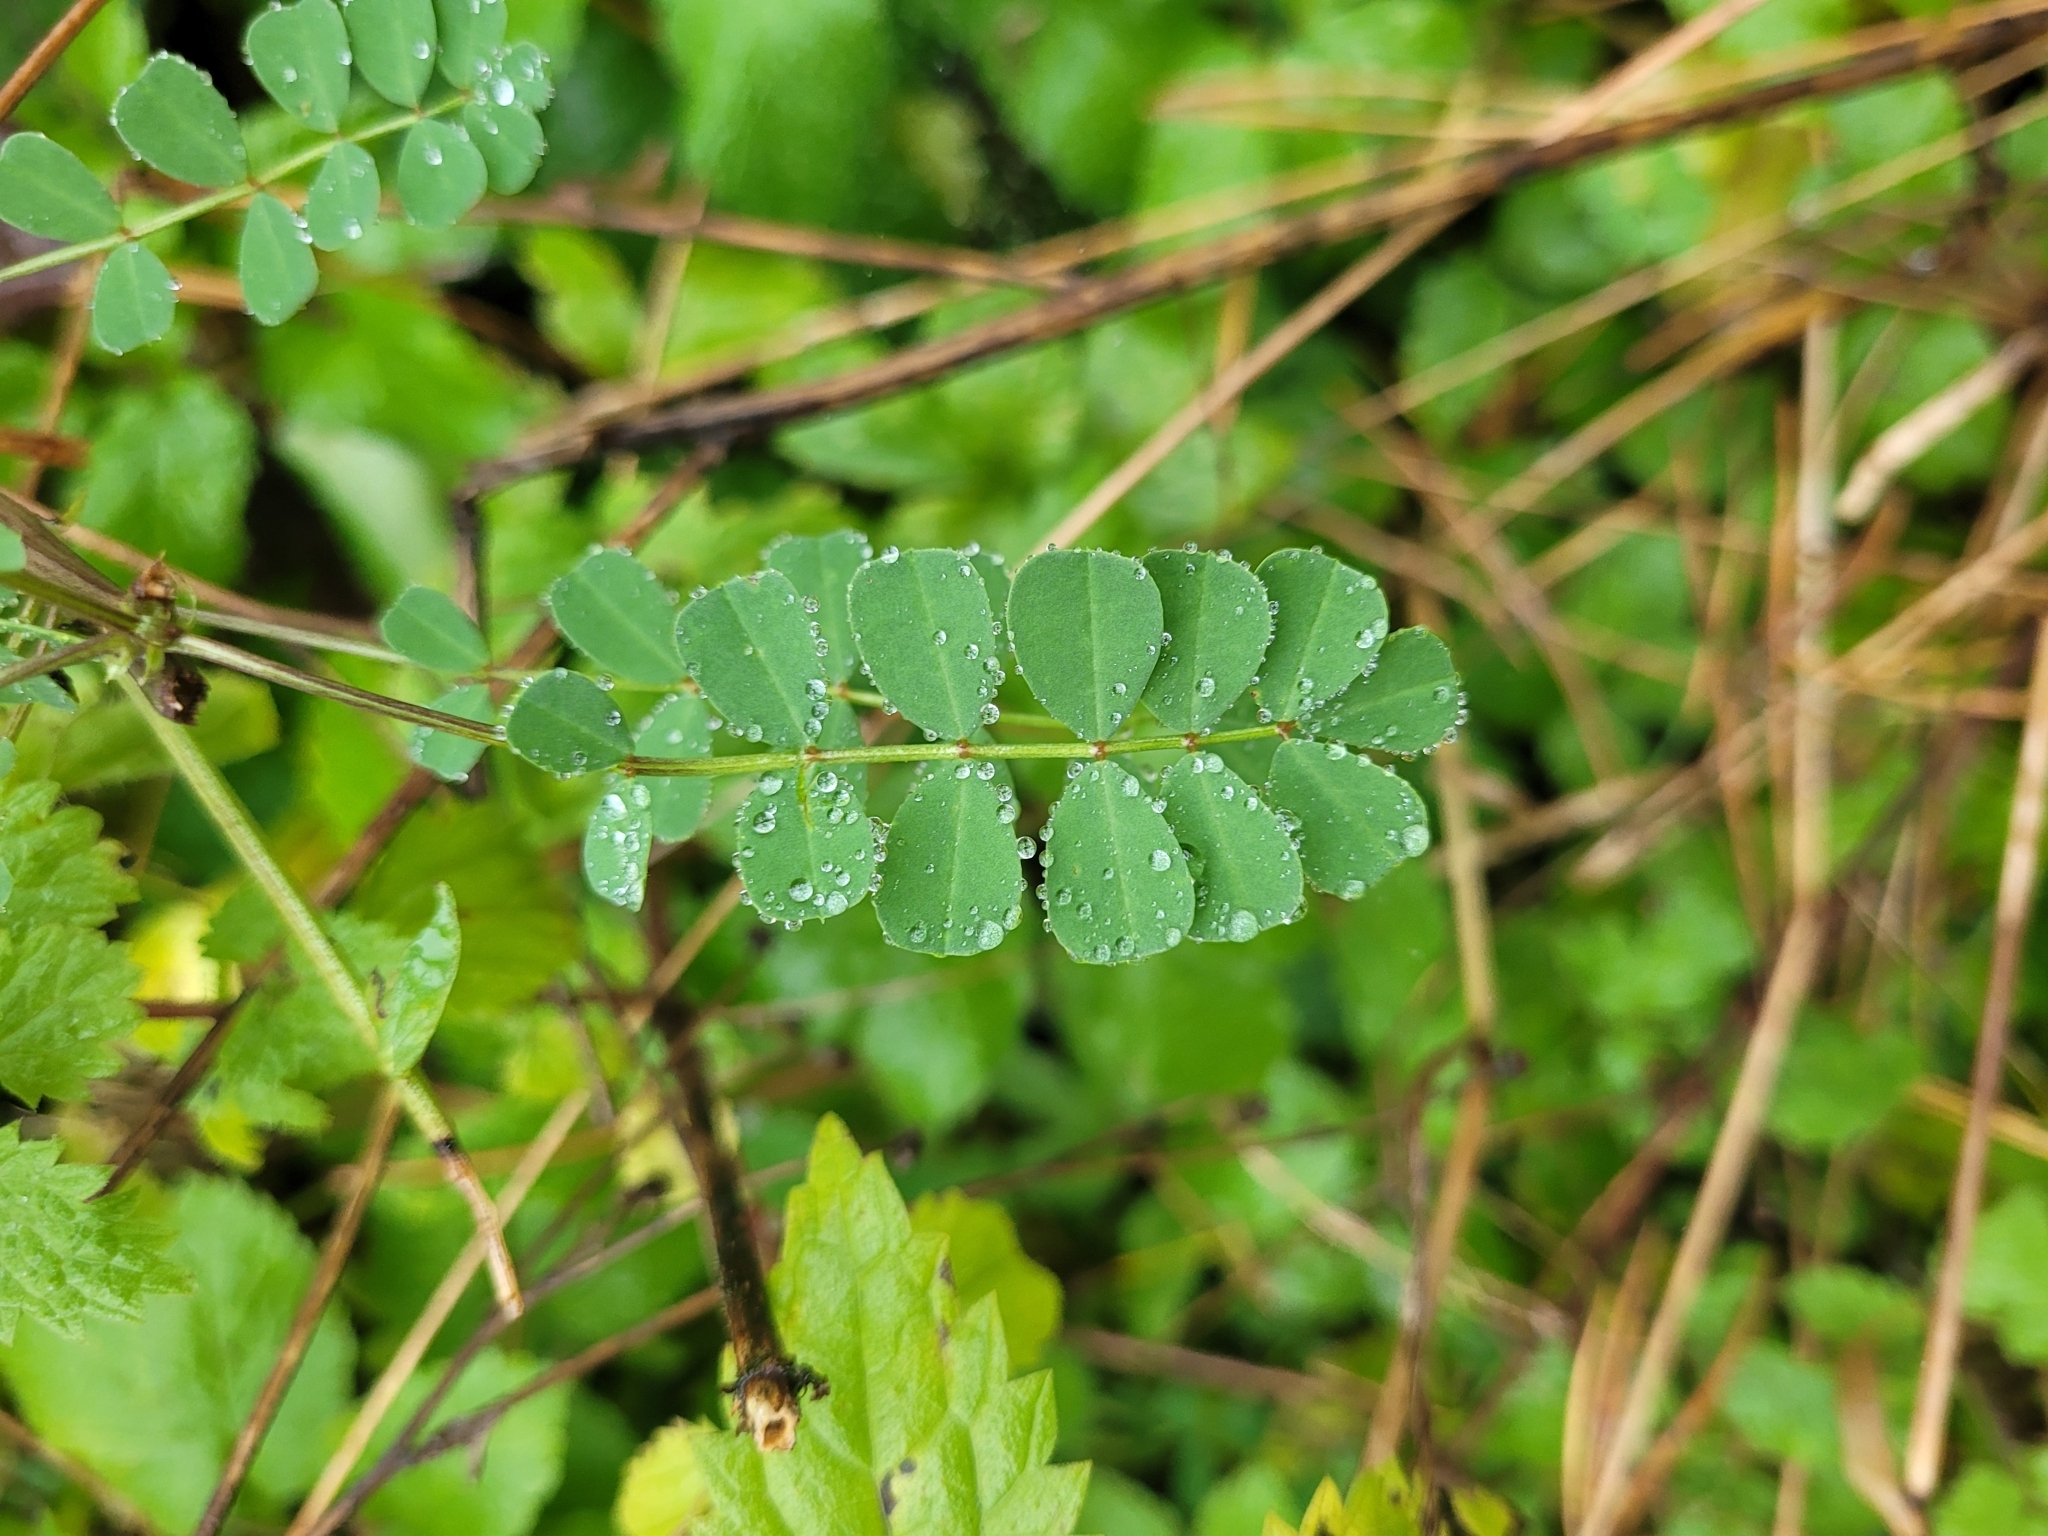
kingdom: Plantae
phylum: Tracheophyta
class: Magnoliopsida
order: Fabales
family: Fabaceae
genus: Coronilla
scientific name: Coronilla varia
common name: Crownvetch
